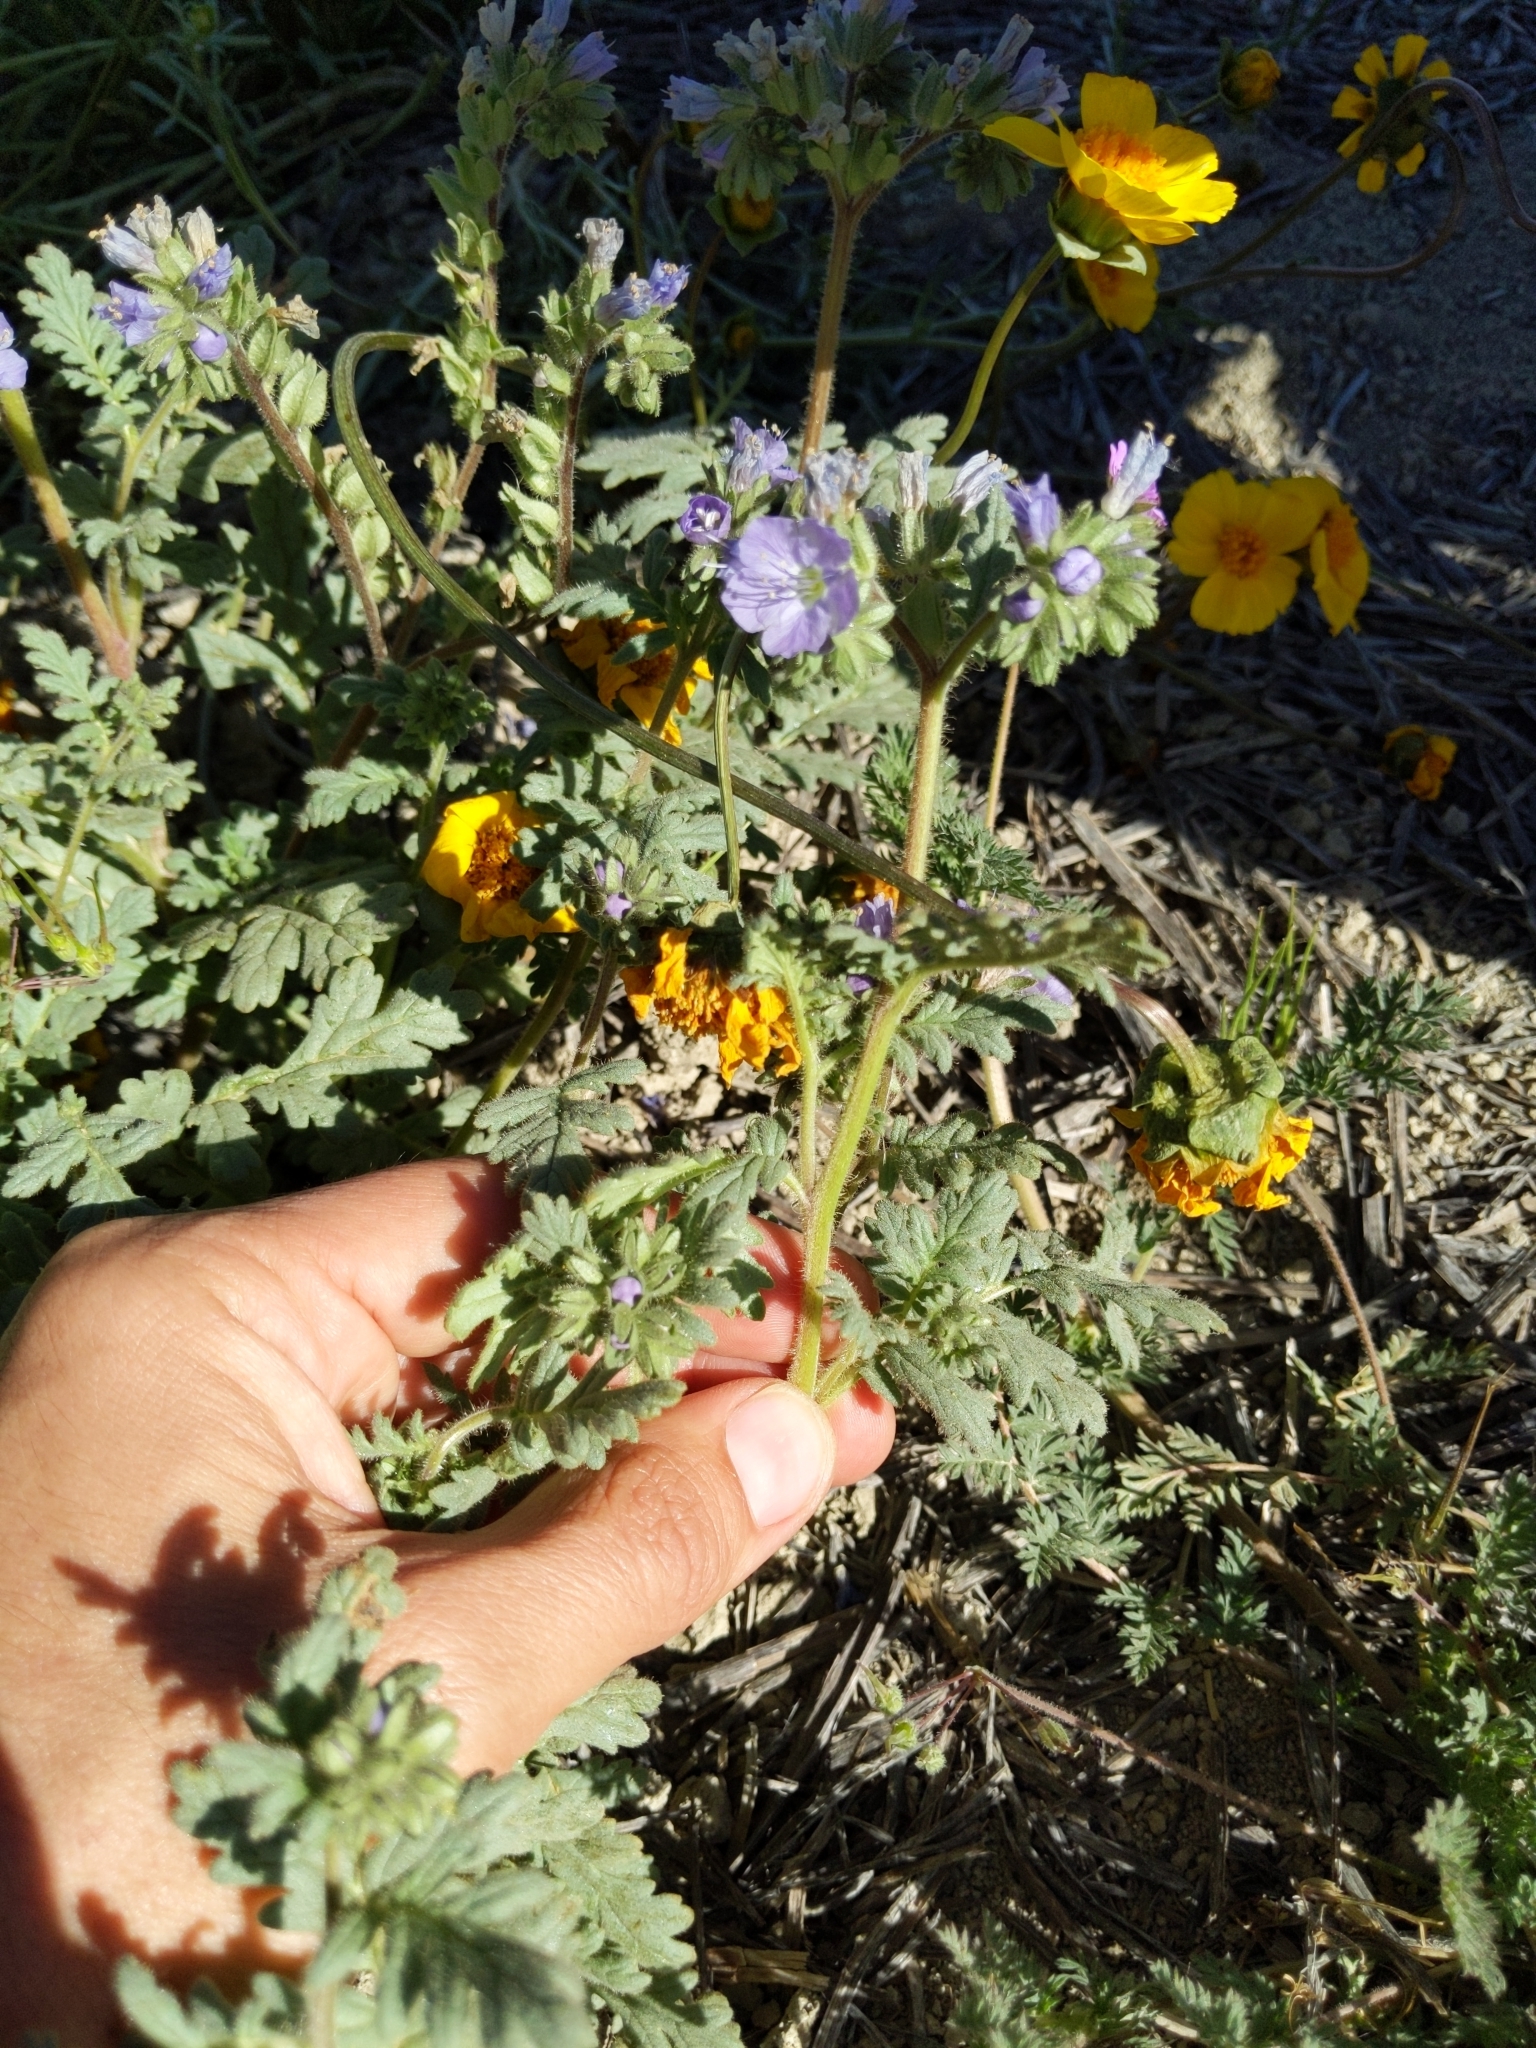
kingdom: Plantae
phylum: Tracheophyta
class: Magnoliopsida
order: Boraginales
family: Hydrophyllaceae
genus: Phacelia
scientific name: Phacelia ciliata
